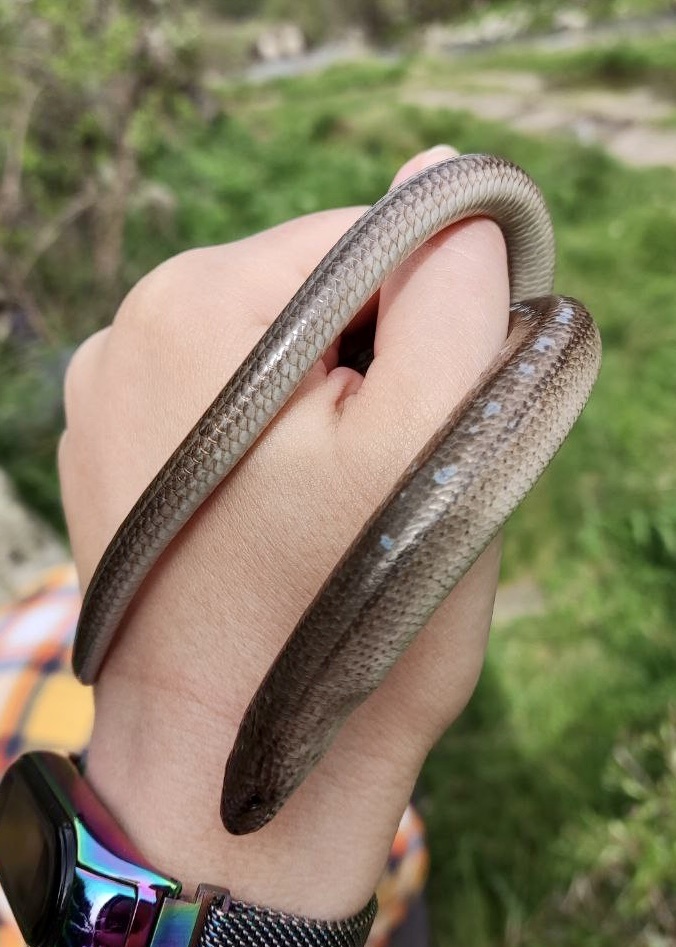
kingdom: Animalia
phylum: Chordata
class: Squamata
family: Anguidae
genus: Anguis
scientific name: Anguis colchica
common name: Slow worm
